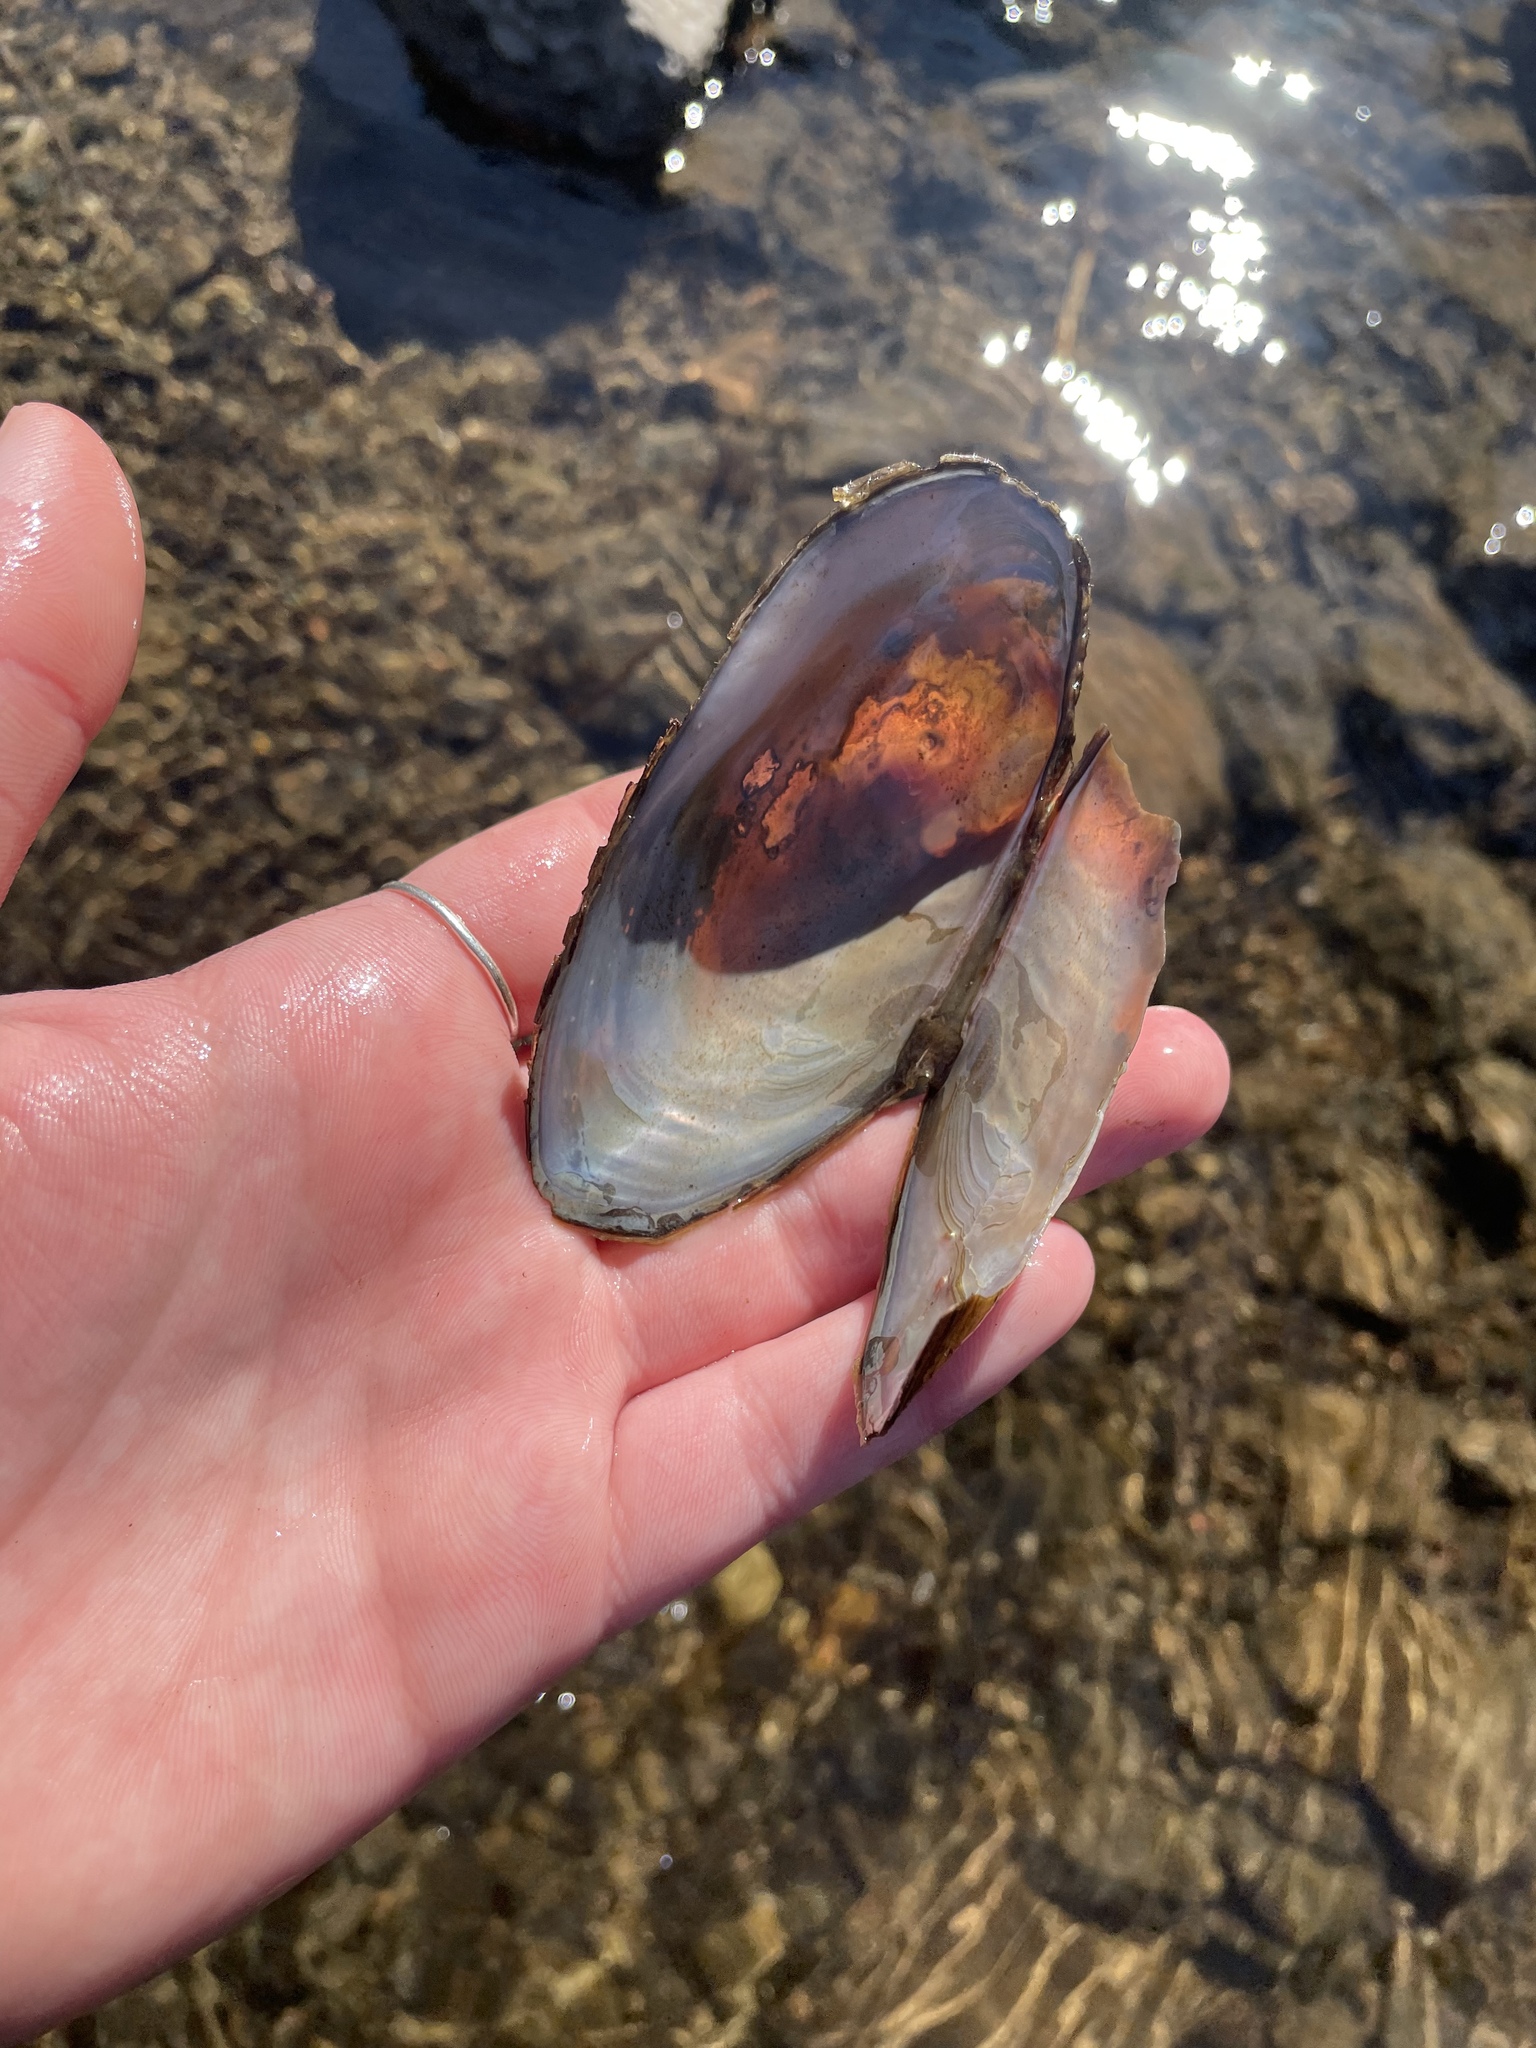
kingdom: Animalia
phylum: Mollusca
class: Bivalvia
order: Unionida
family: Unionidae
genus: Utterbackiana
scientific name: Utterbackiana implicata
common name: Alewife floater
